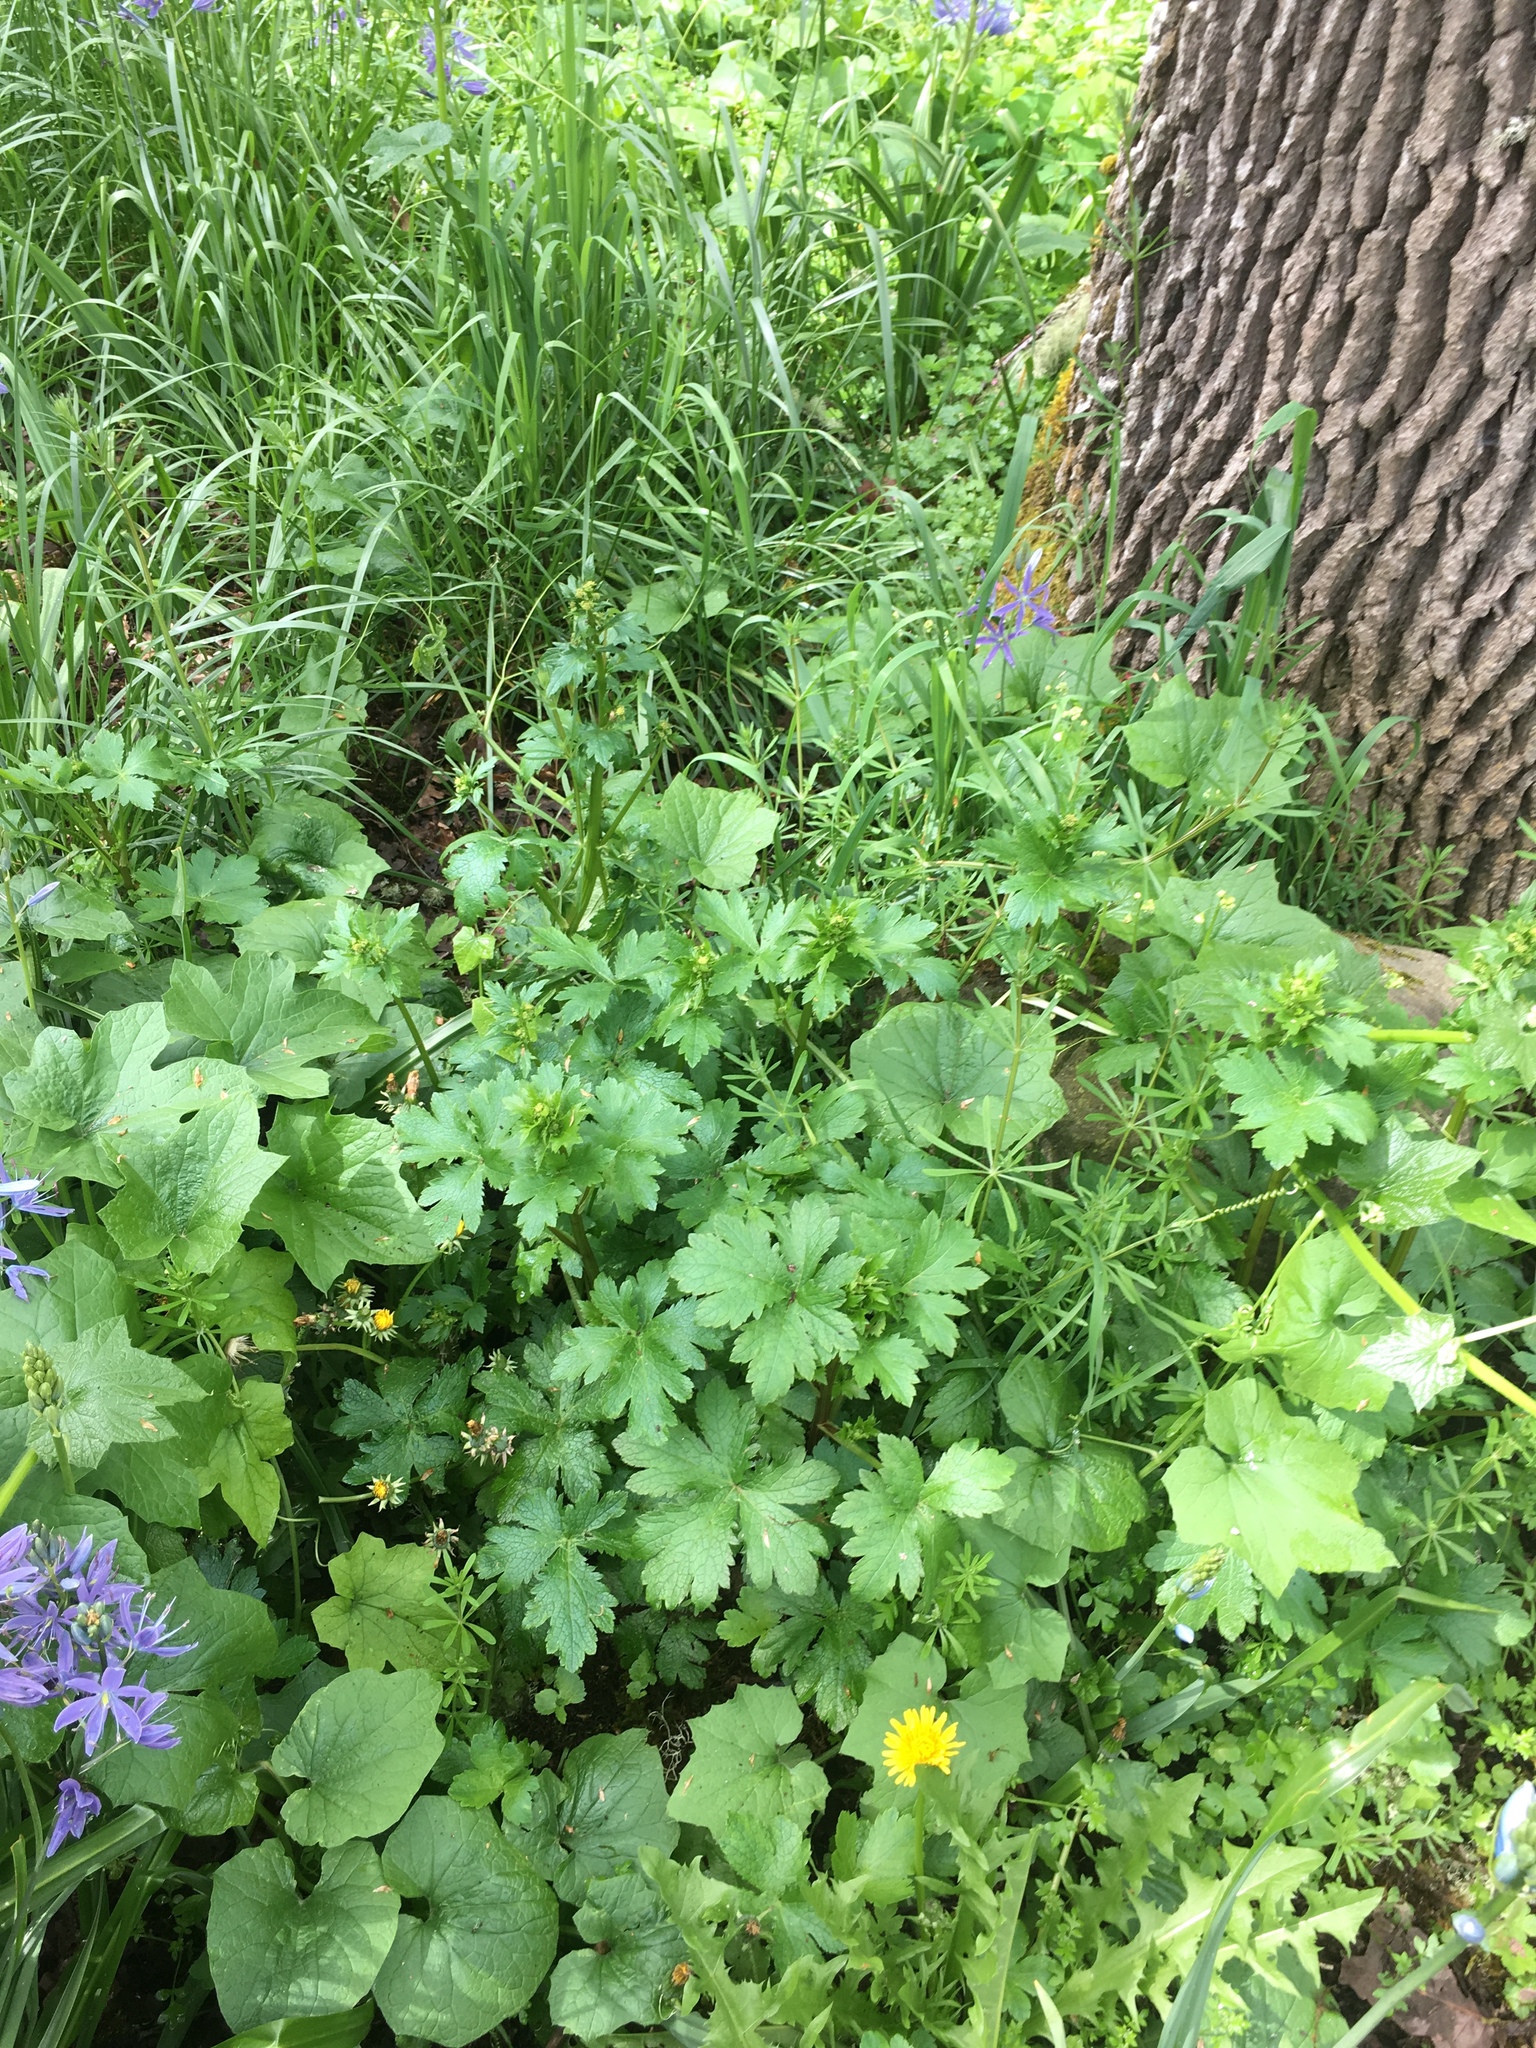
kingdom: Plantae
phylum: Tracheophyta
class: Magnoliopsida
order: Cucurbitales
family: Cucurbitaceae
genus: Marah
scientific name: Marah oregana
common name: Coastal manroot
